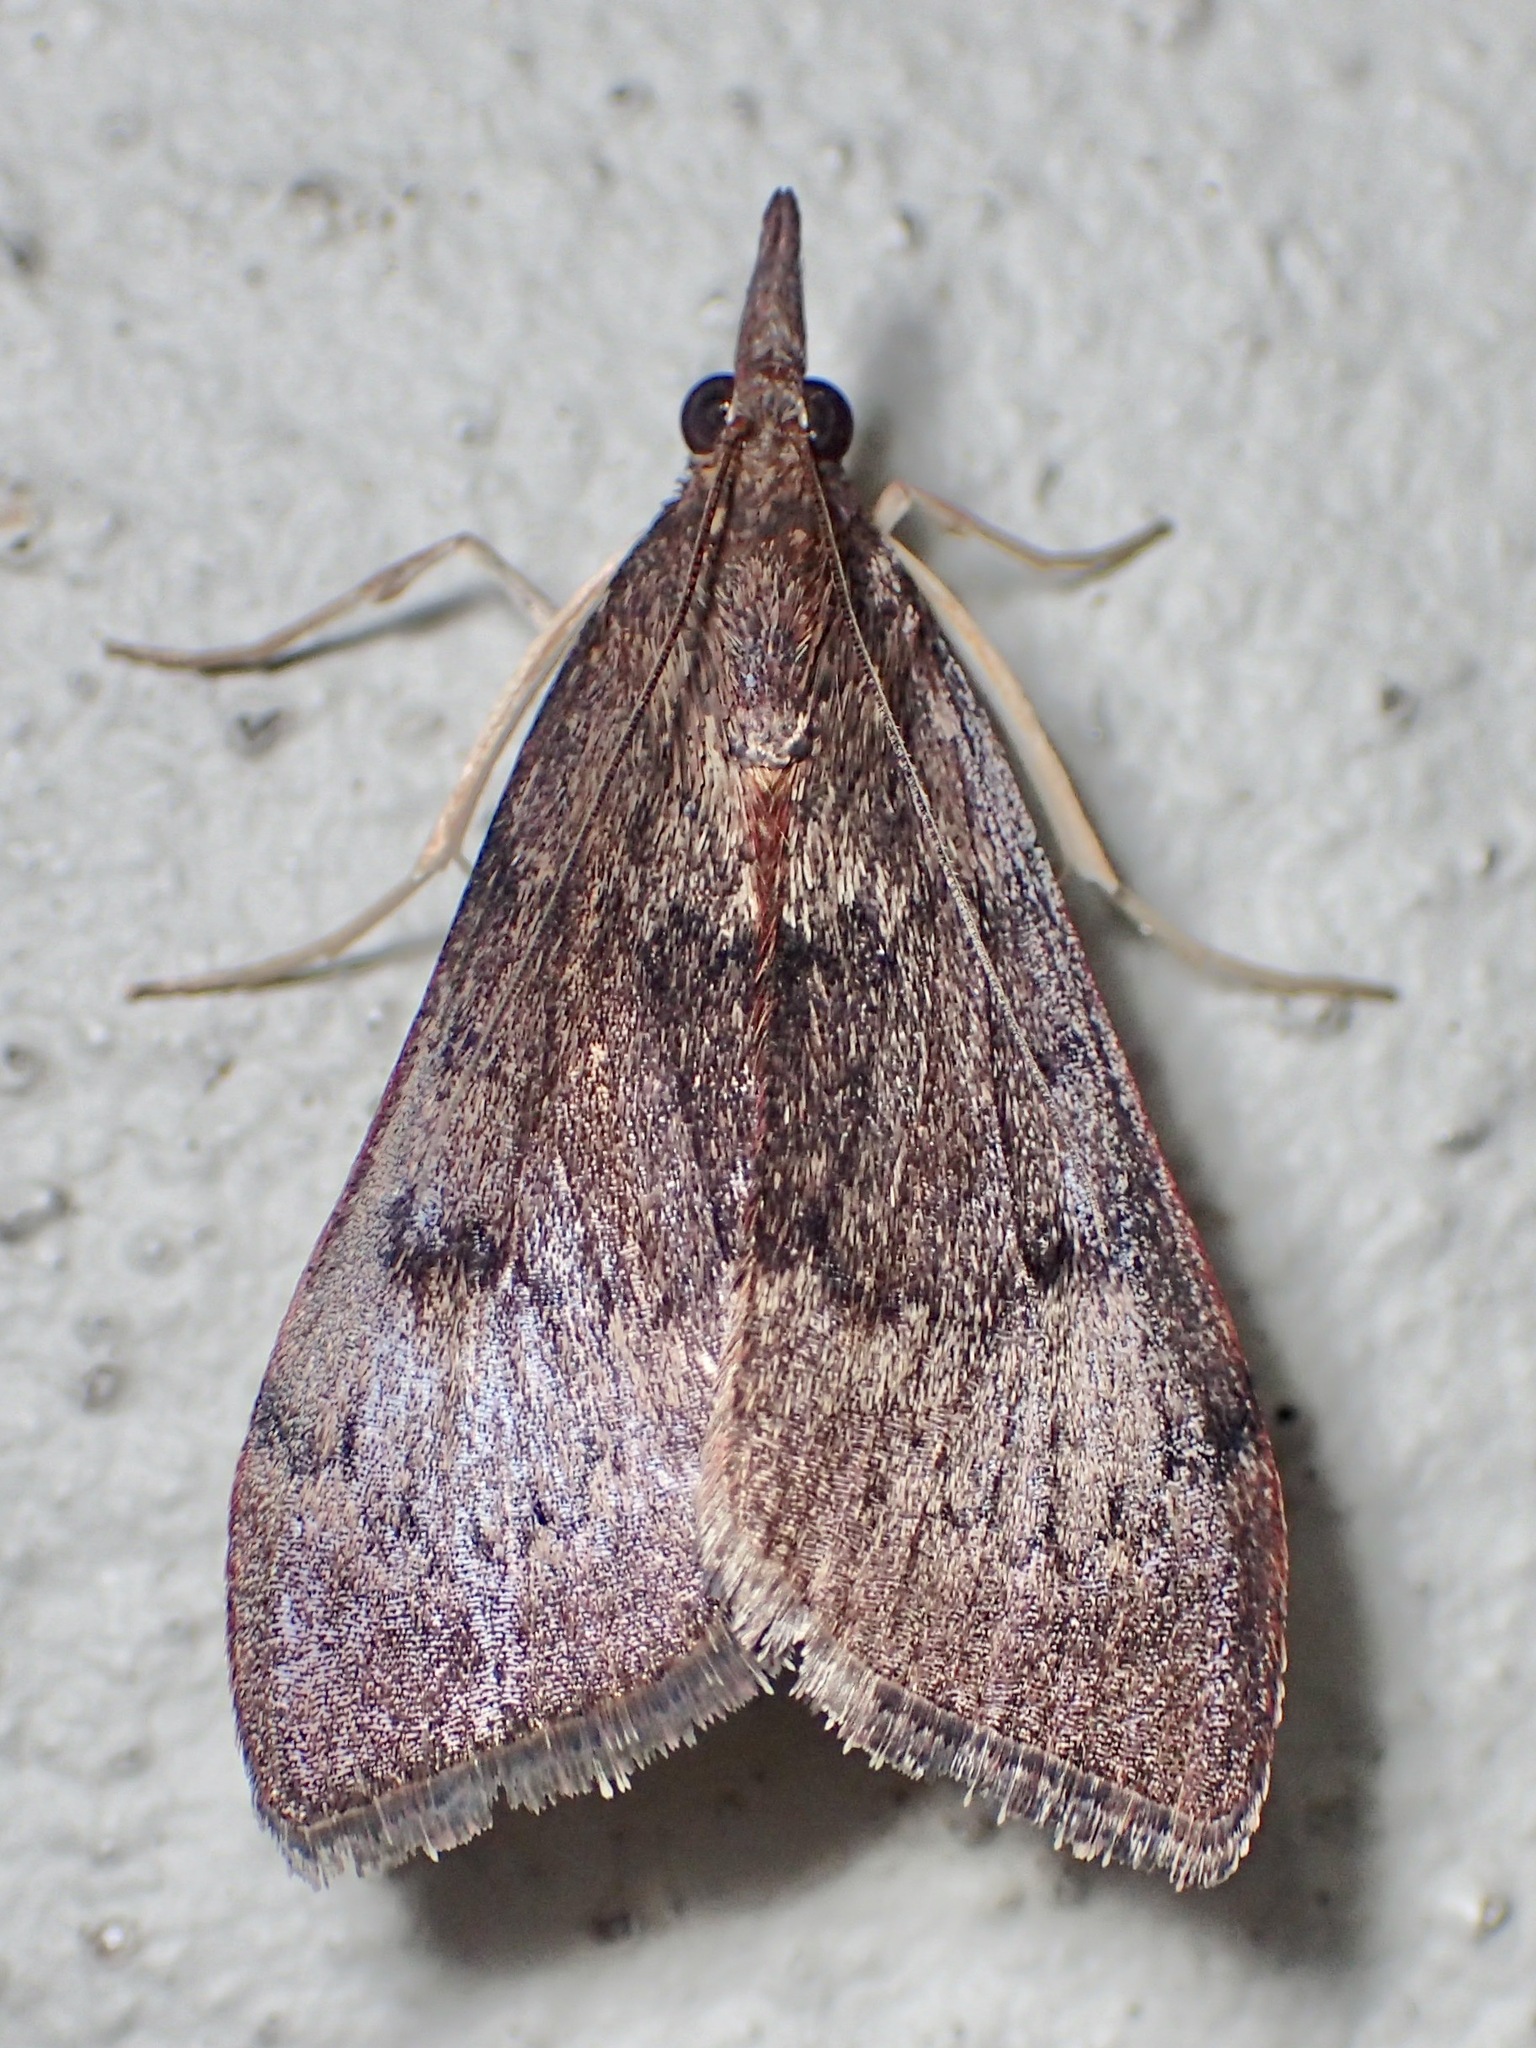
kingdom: Animalia
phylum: Arthropoda
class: Insecta
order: Lepidoptera
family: Crambidae
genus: Uresiphita
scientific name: Uresiphita ornithopteralis
